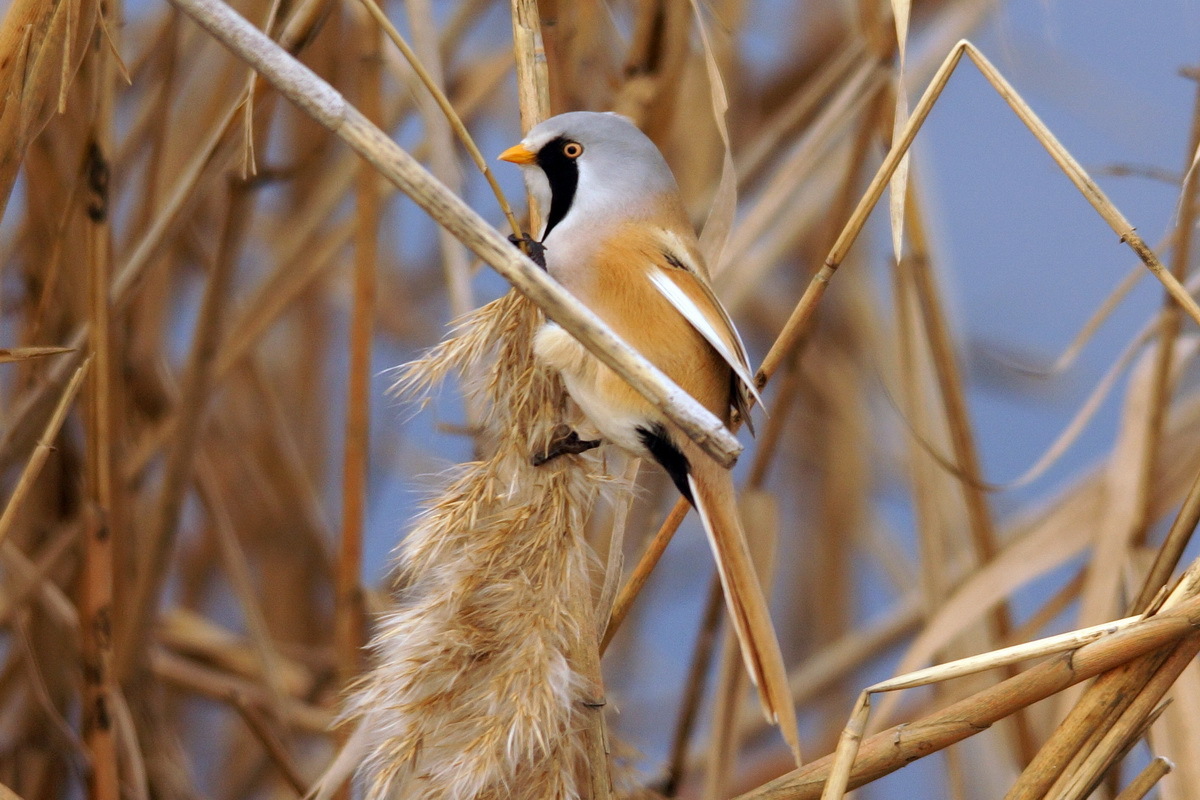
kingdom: Animalia
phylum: Chordata
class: Aves
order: Passeriformes
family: Panuridae
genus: Panurus
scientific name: Panurus biarmicus
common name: Bearded reedling
